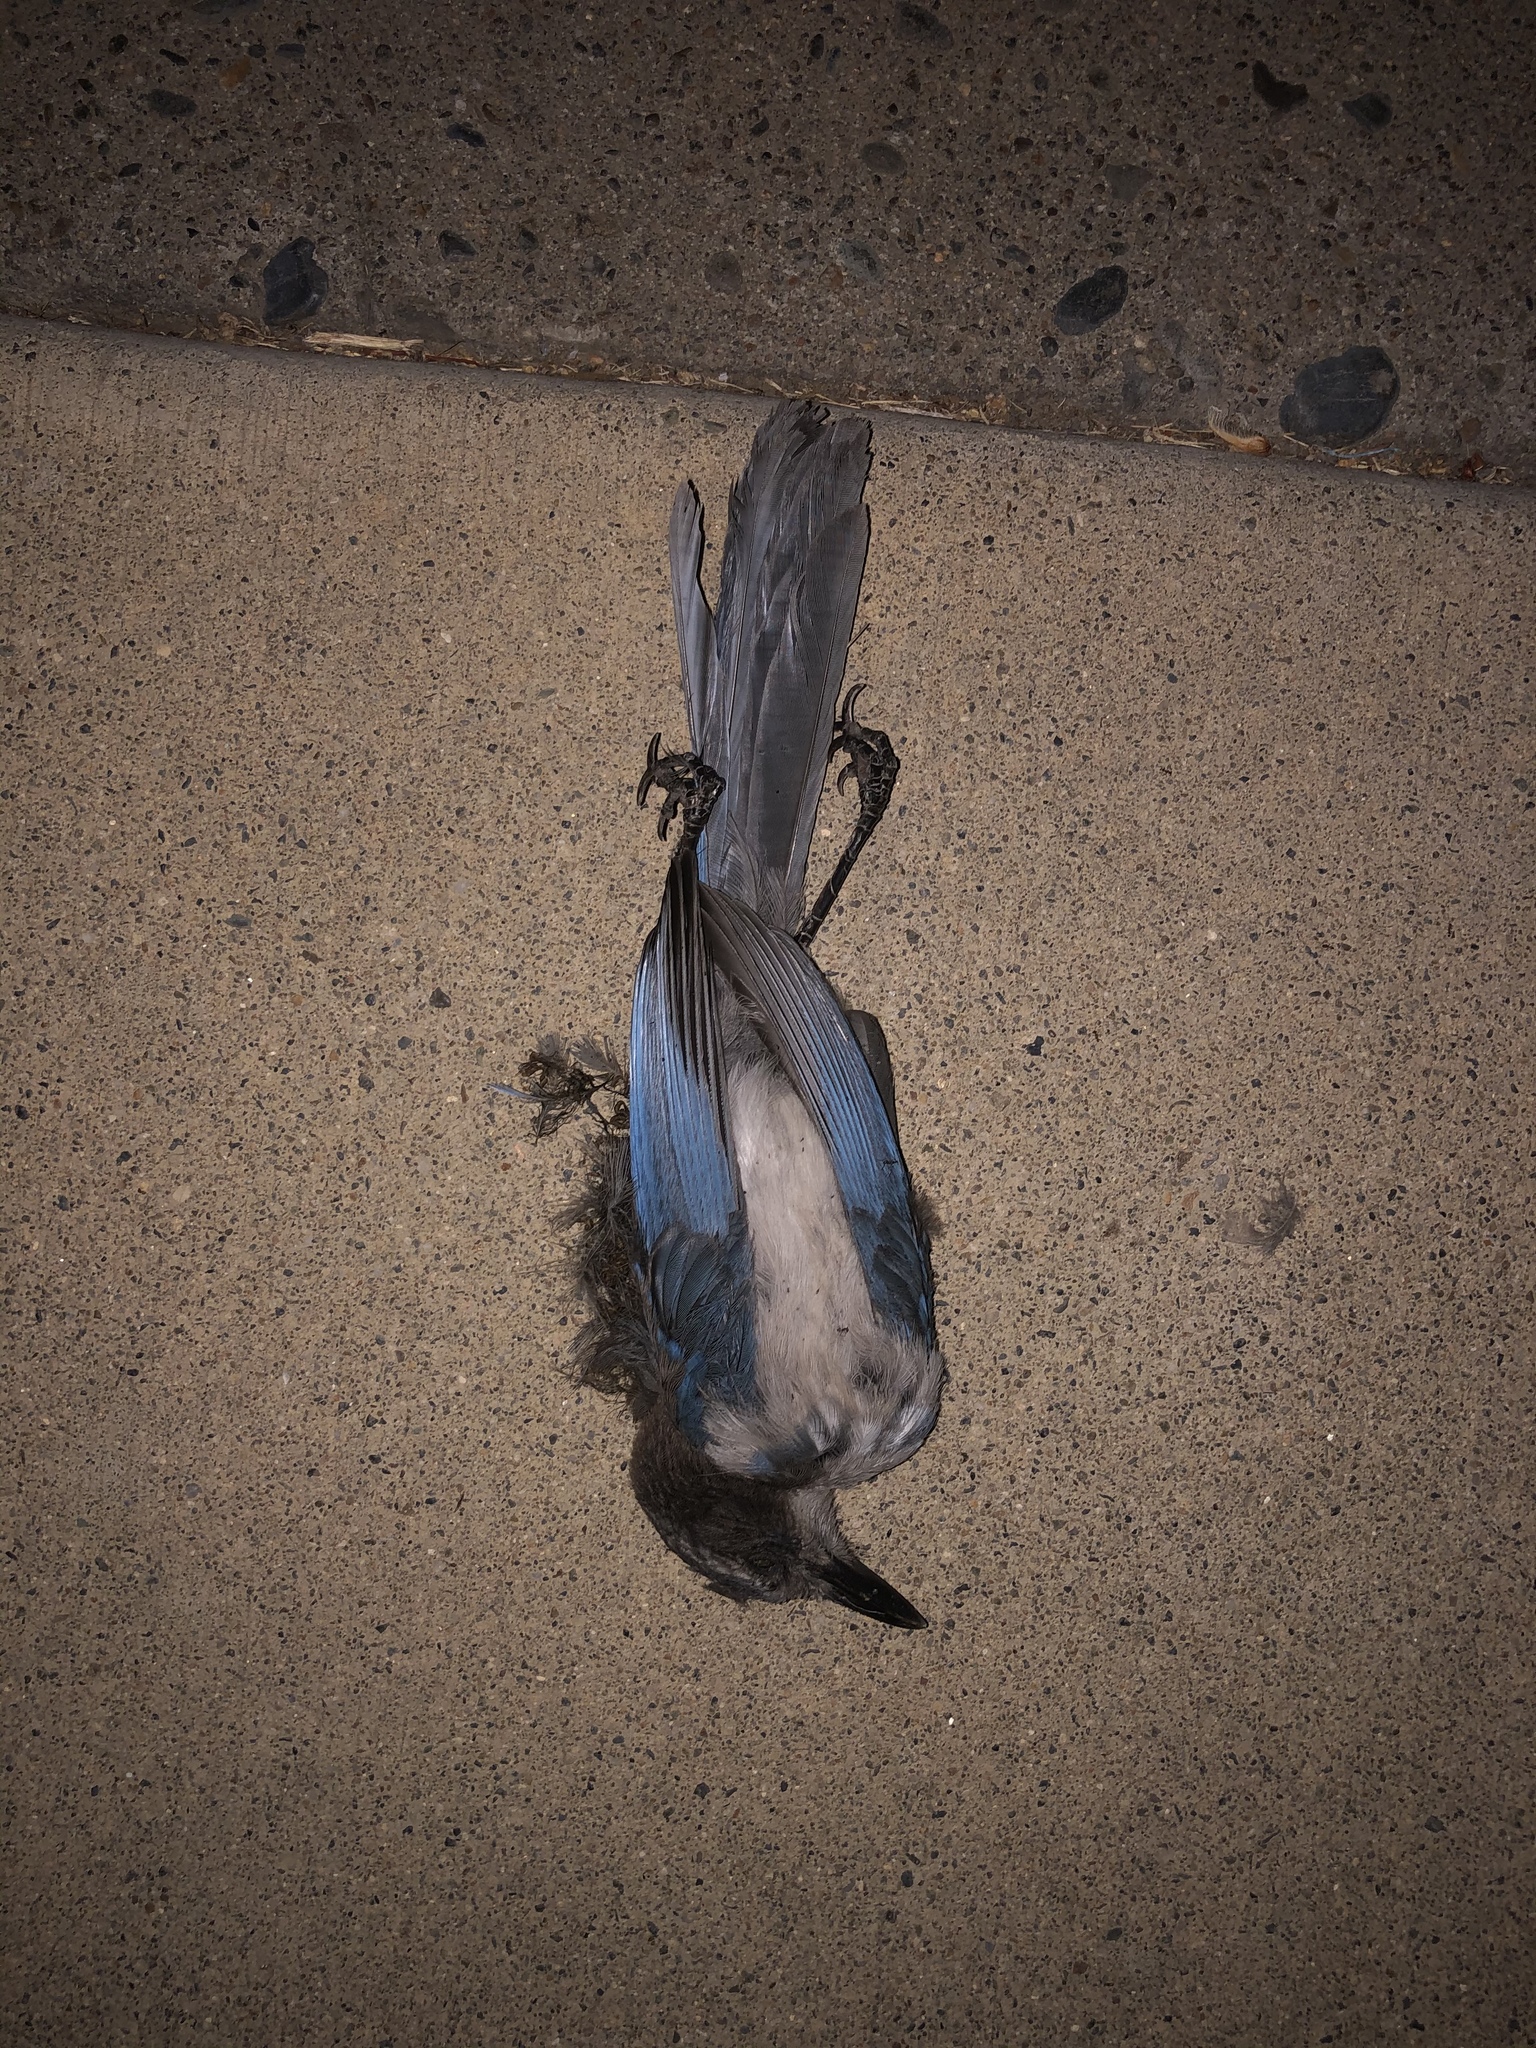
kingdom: Animalia
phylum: Chordata
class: Aves
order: Passeriformes
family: Corvidae
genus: Aphelocoma
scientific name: Aphelocoma californica
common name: California scrub-jay
